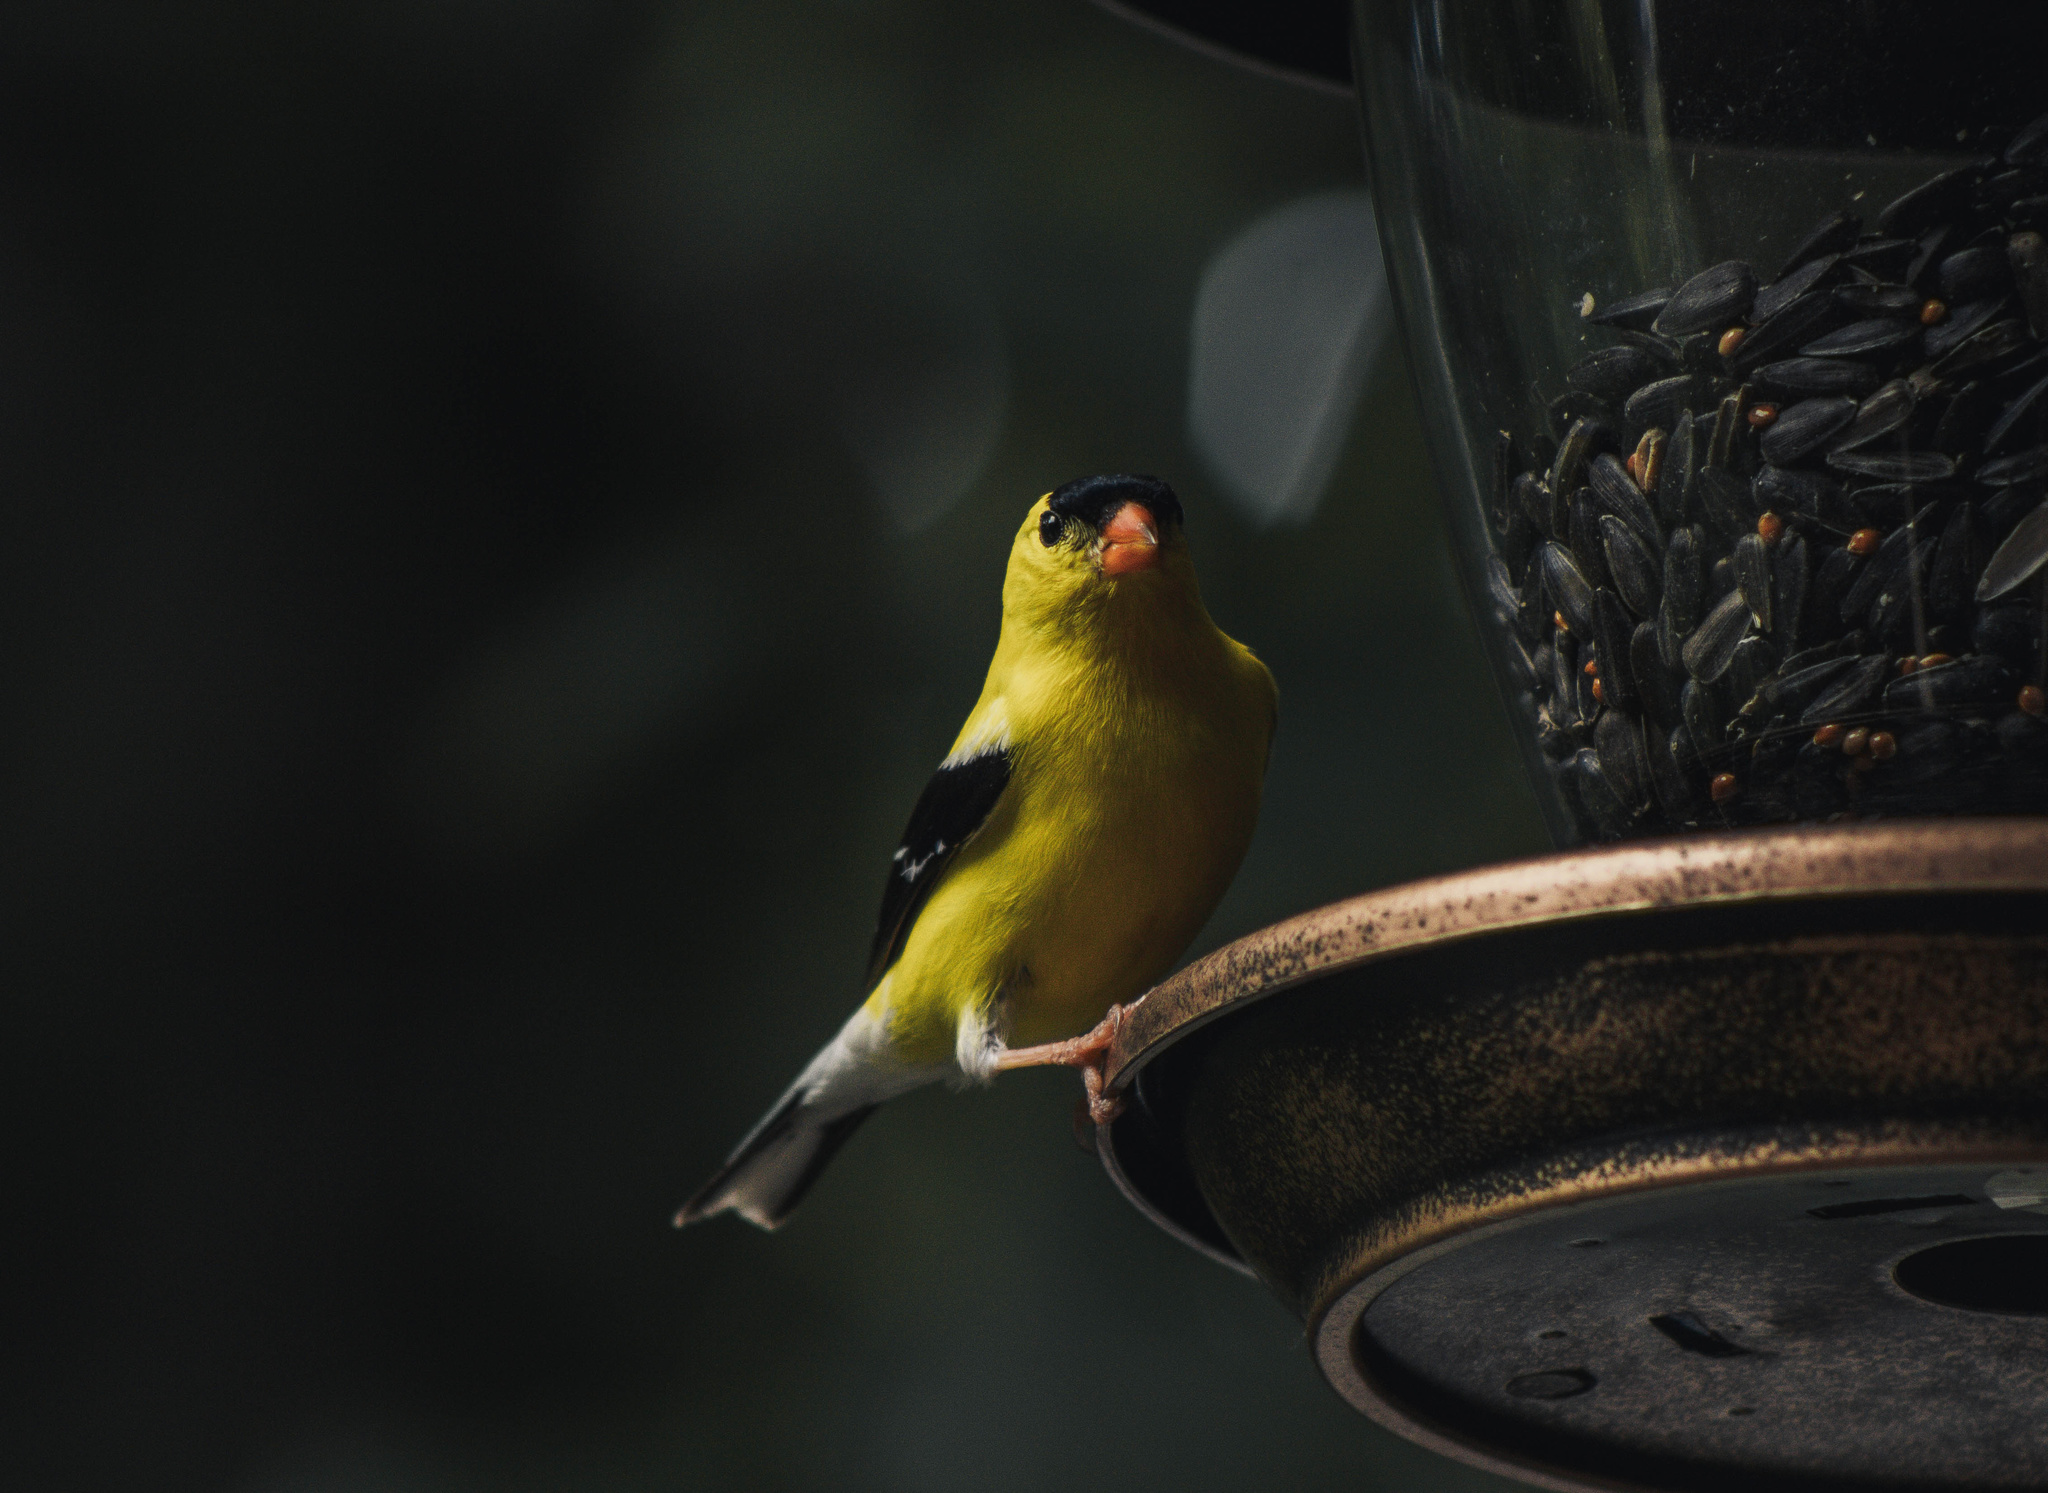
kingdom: Animalia
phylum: Chordata
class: Aves
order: Passeriformes
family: Fringillidae
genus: Spinus
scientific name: Spinus tristis
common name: American goldfinch
